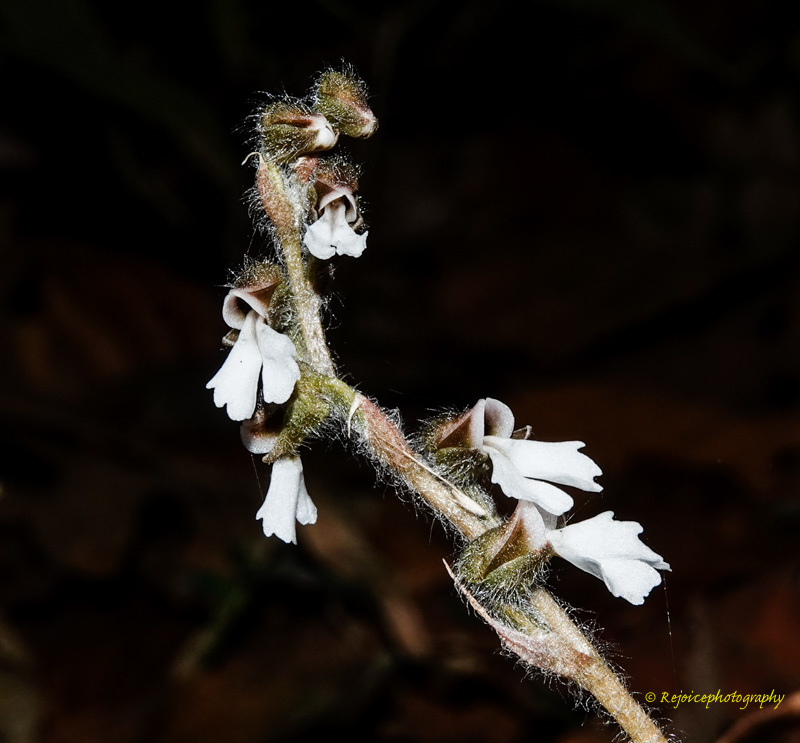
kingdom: Plantae
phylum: Tracheophyta
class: Liliopsida
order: Asparagales
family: Orchidaceae
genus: Zeuxine
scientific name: Zeuxine longilabris
